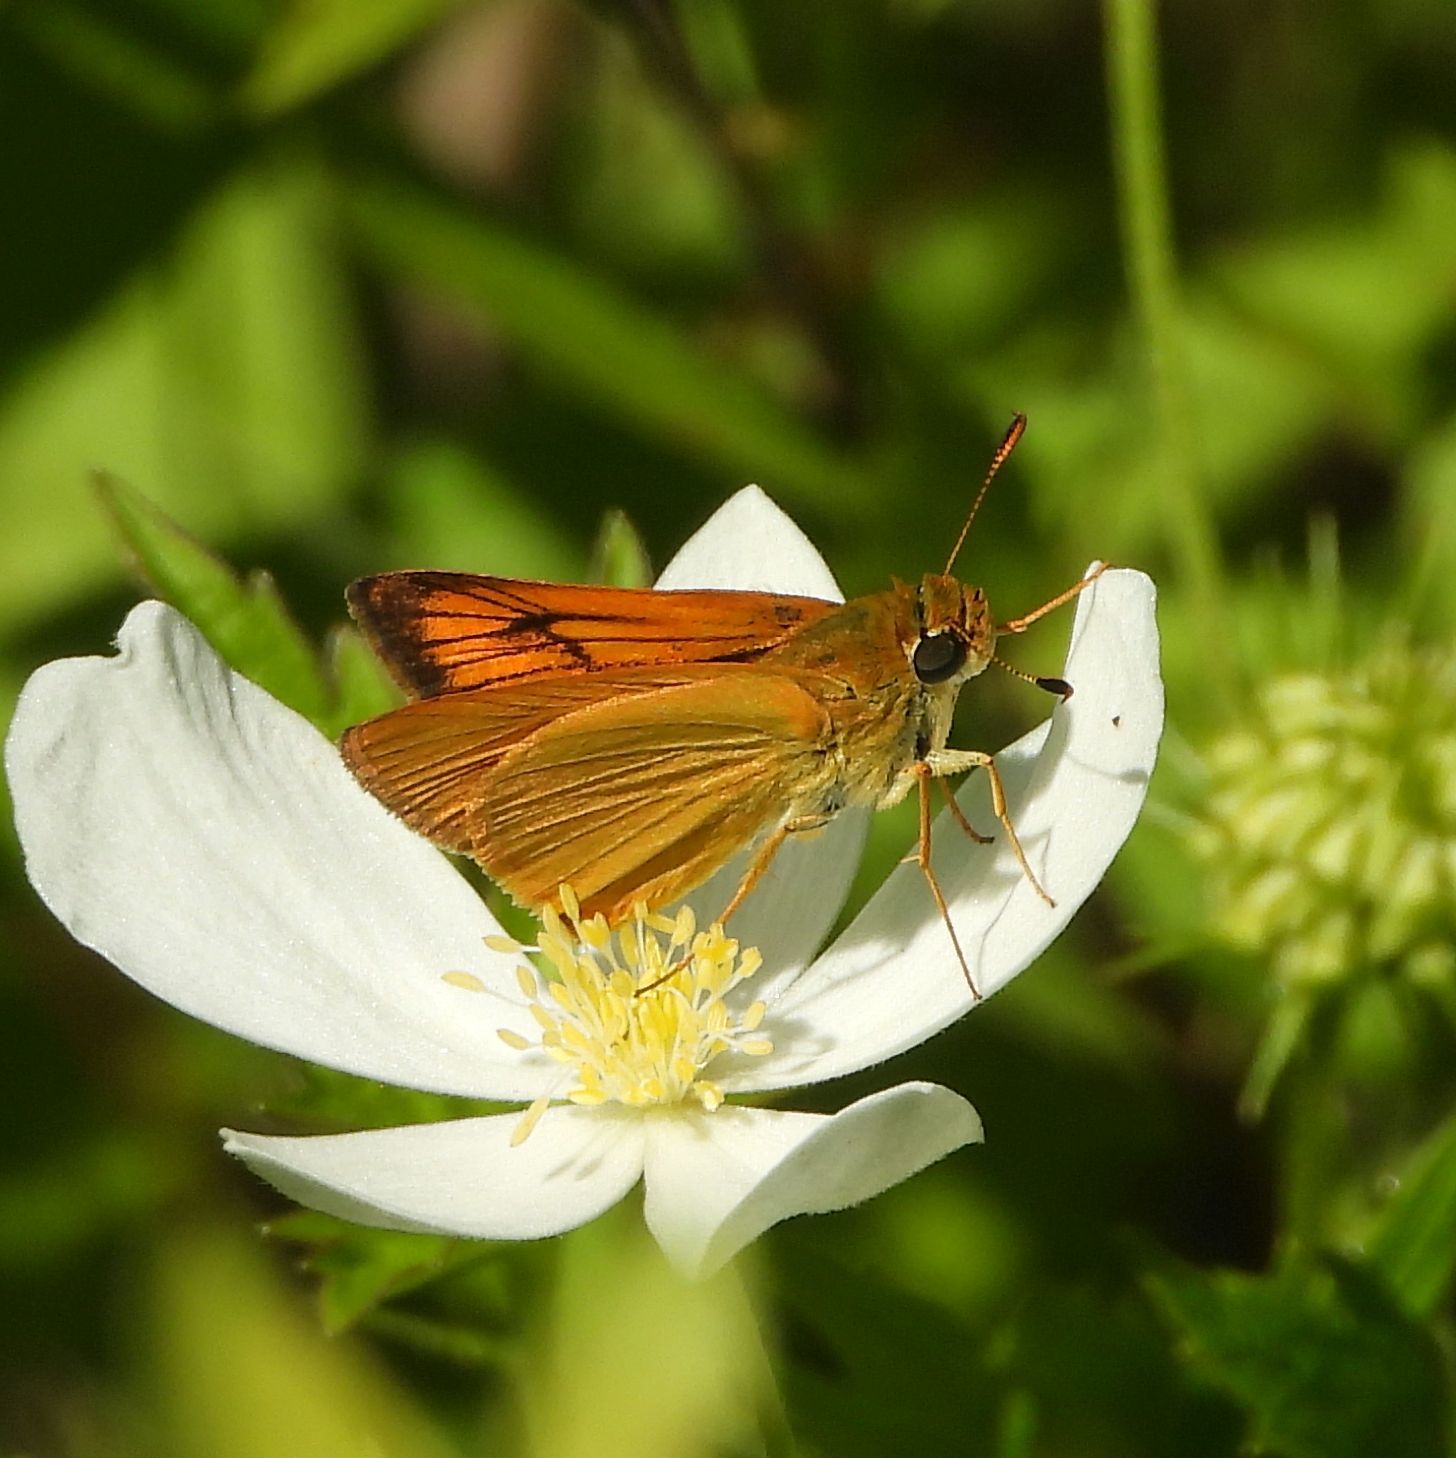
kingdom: Animalia
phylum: Arthropoda
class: Insecta
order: Lepidoptera
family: Hesperiidae
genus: Atrytone
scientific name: Atrytone delaware
